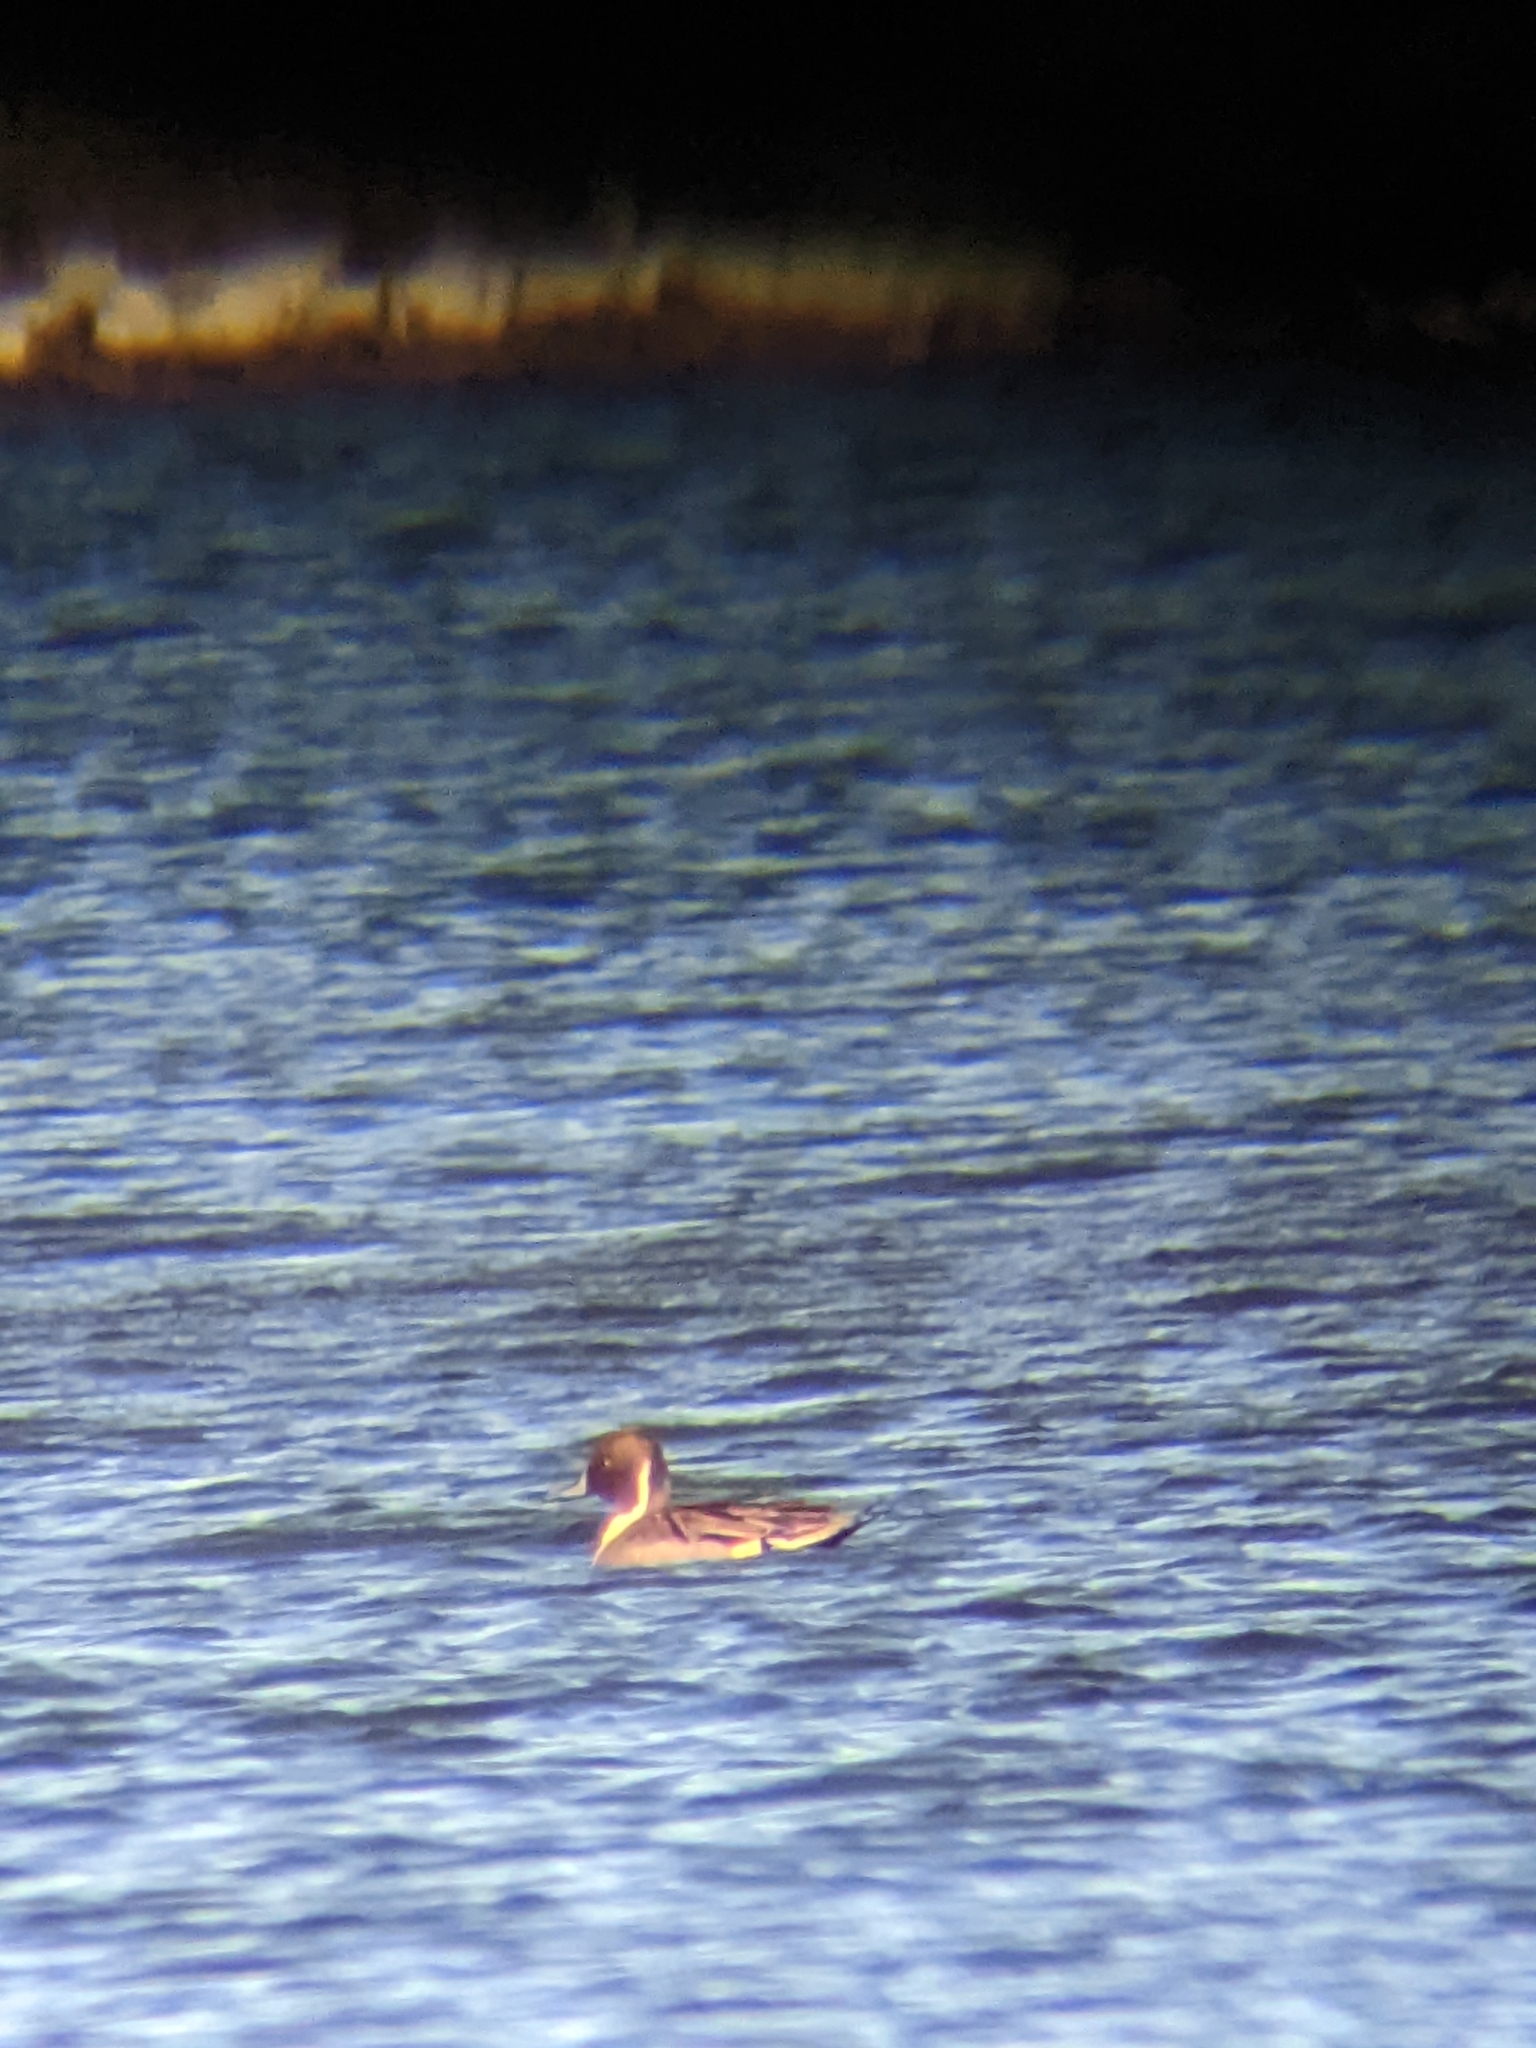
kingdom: Animalia
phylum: Chordata
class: Aves
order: Anseriformes
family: Anatidae
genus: Anas
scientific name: Anas acuta
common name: Northern pintail
